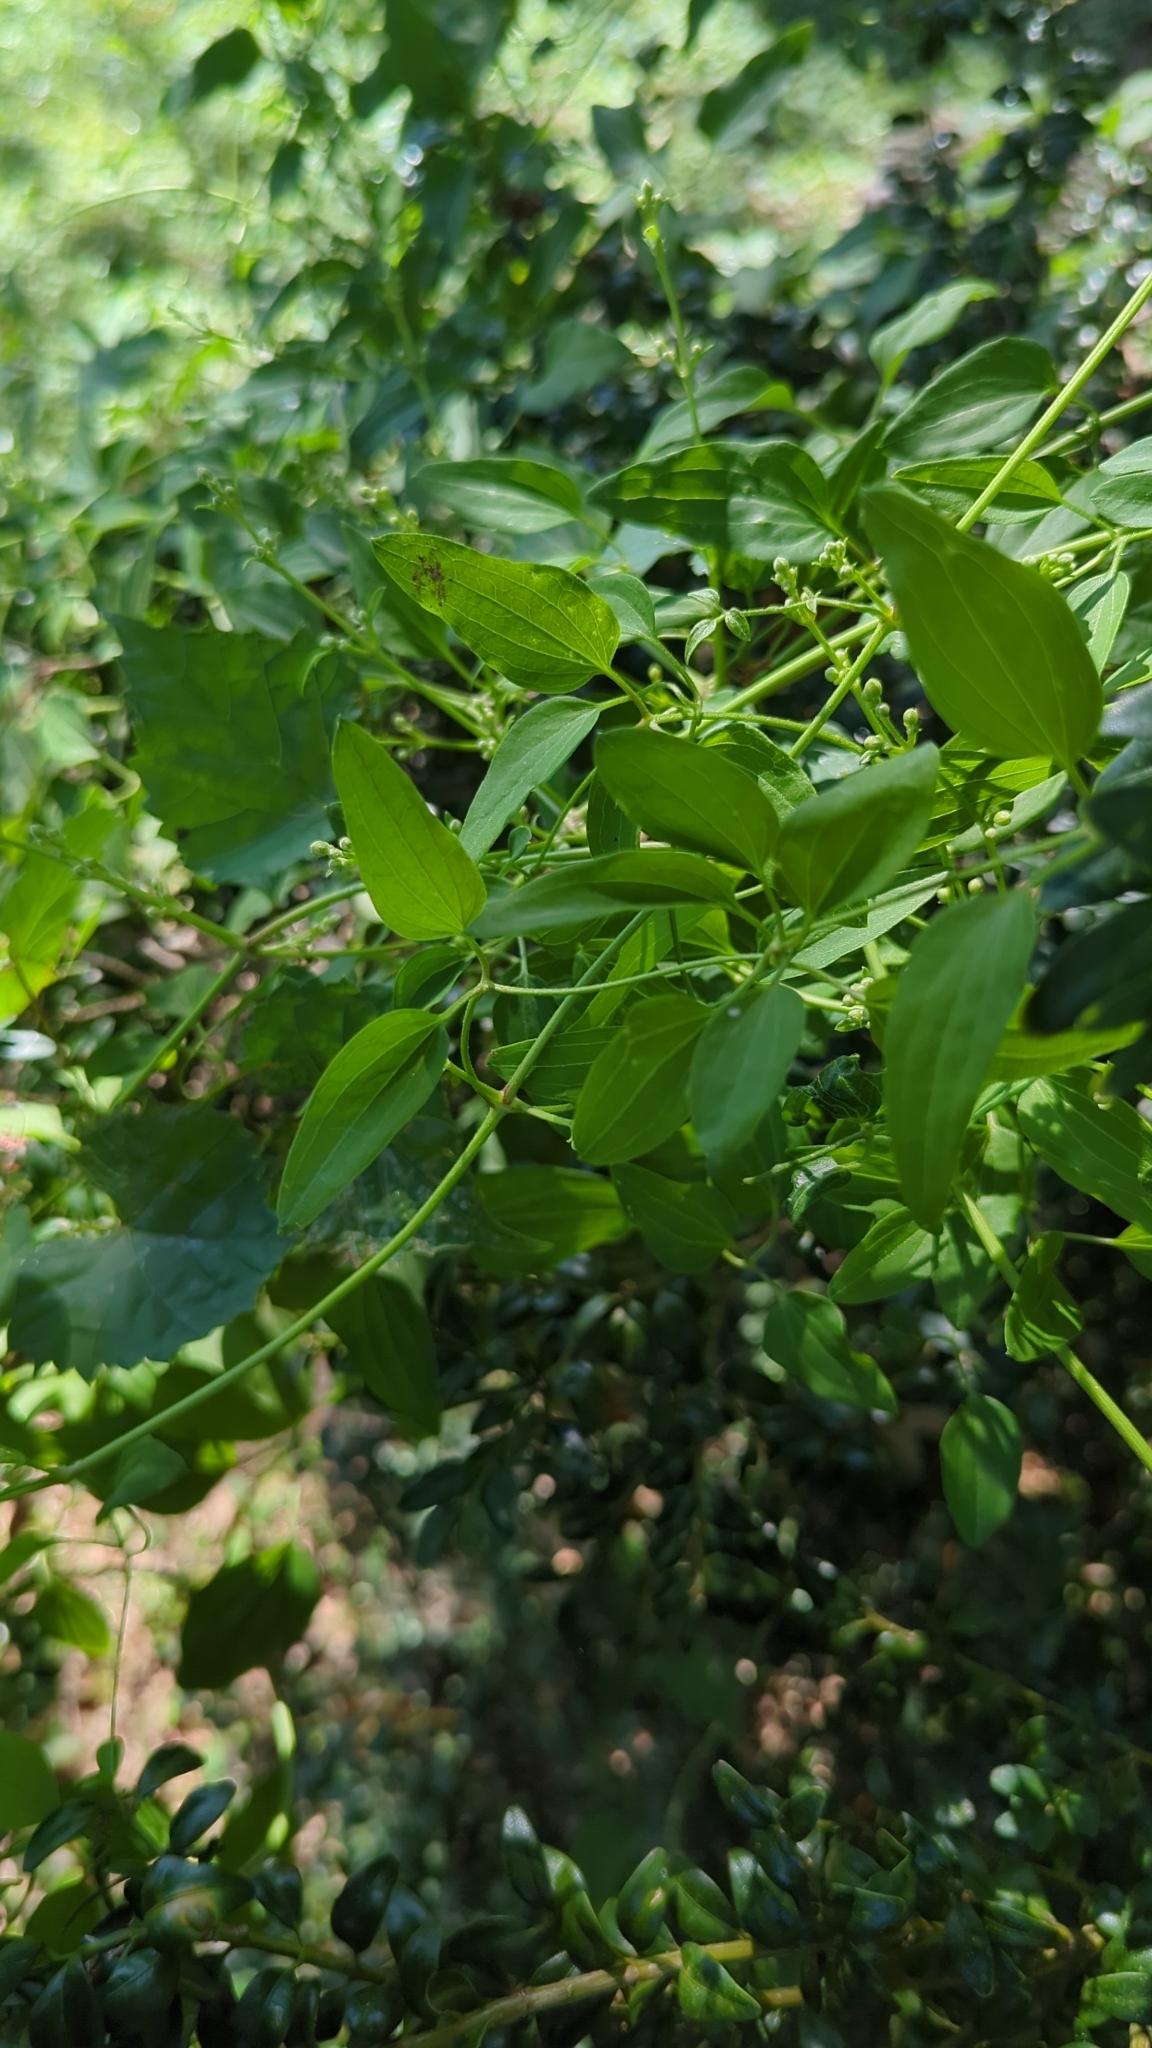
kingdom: Plantae
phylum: Tracheophyta
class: Magnoliopsida
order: Ranunculales
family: Ranunculaceae
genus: Clematis
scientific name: Clematis terniflora
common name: Sweet autumn clematis
